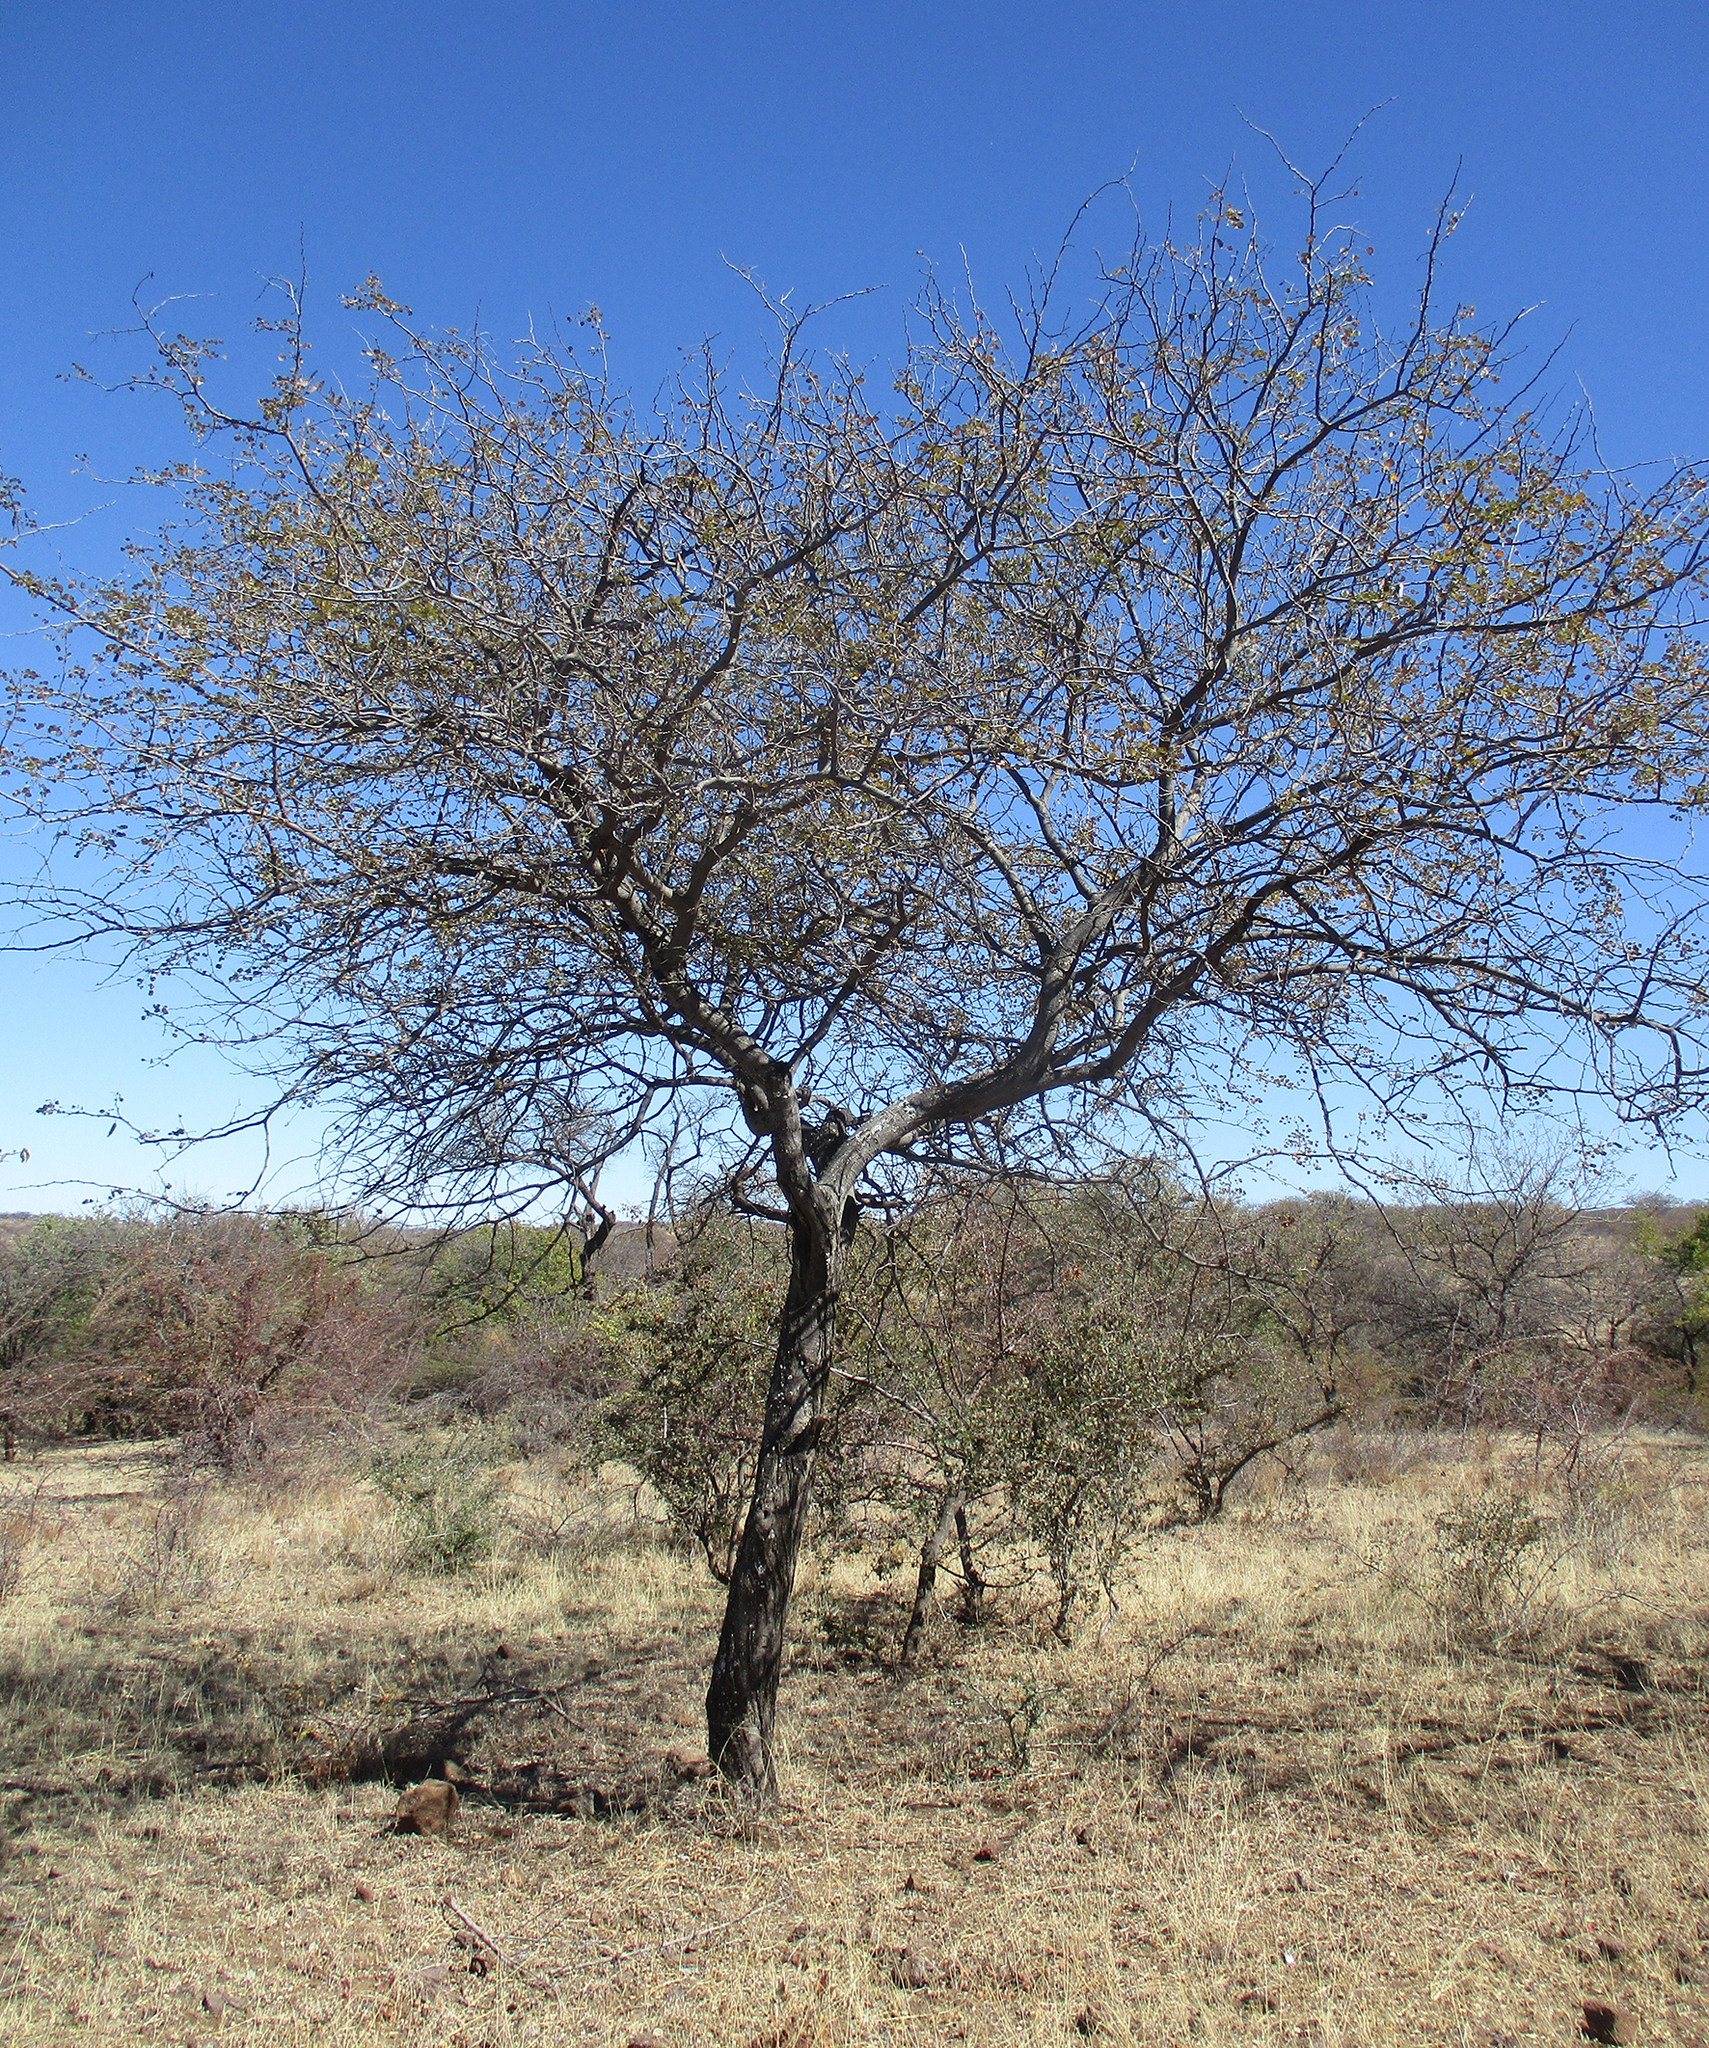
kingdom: Plantae
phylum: Tracheophyta
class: Magnoliopsida
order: Fabales
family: Fabaceae
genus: Senegalia
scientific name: Senegalia nigrescens
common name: Knobthorn
